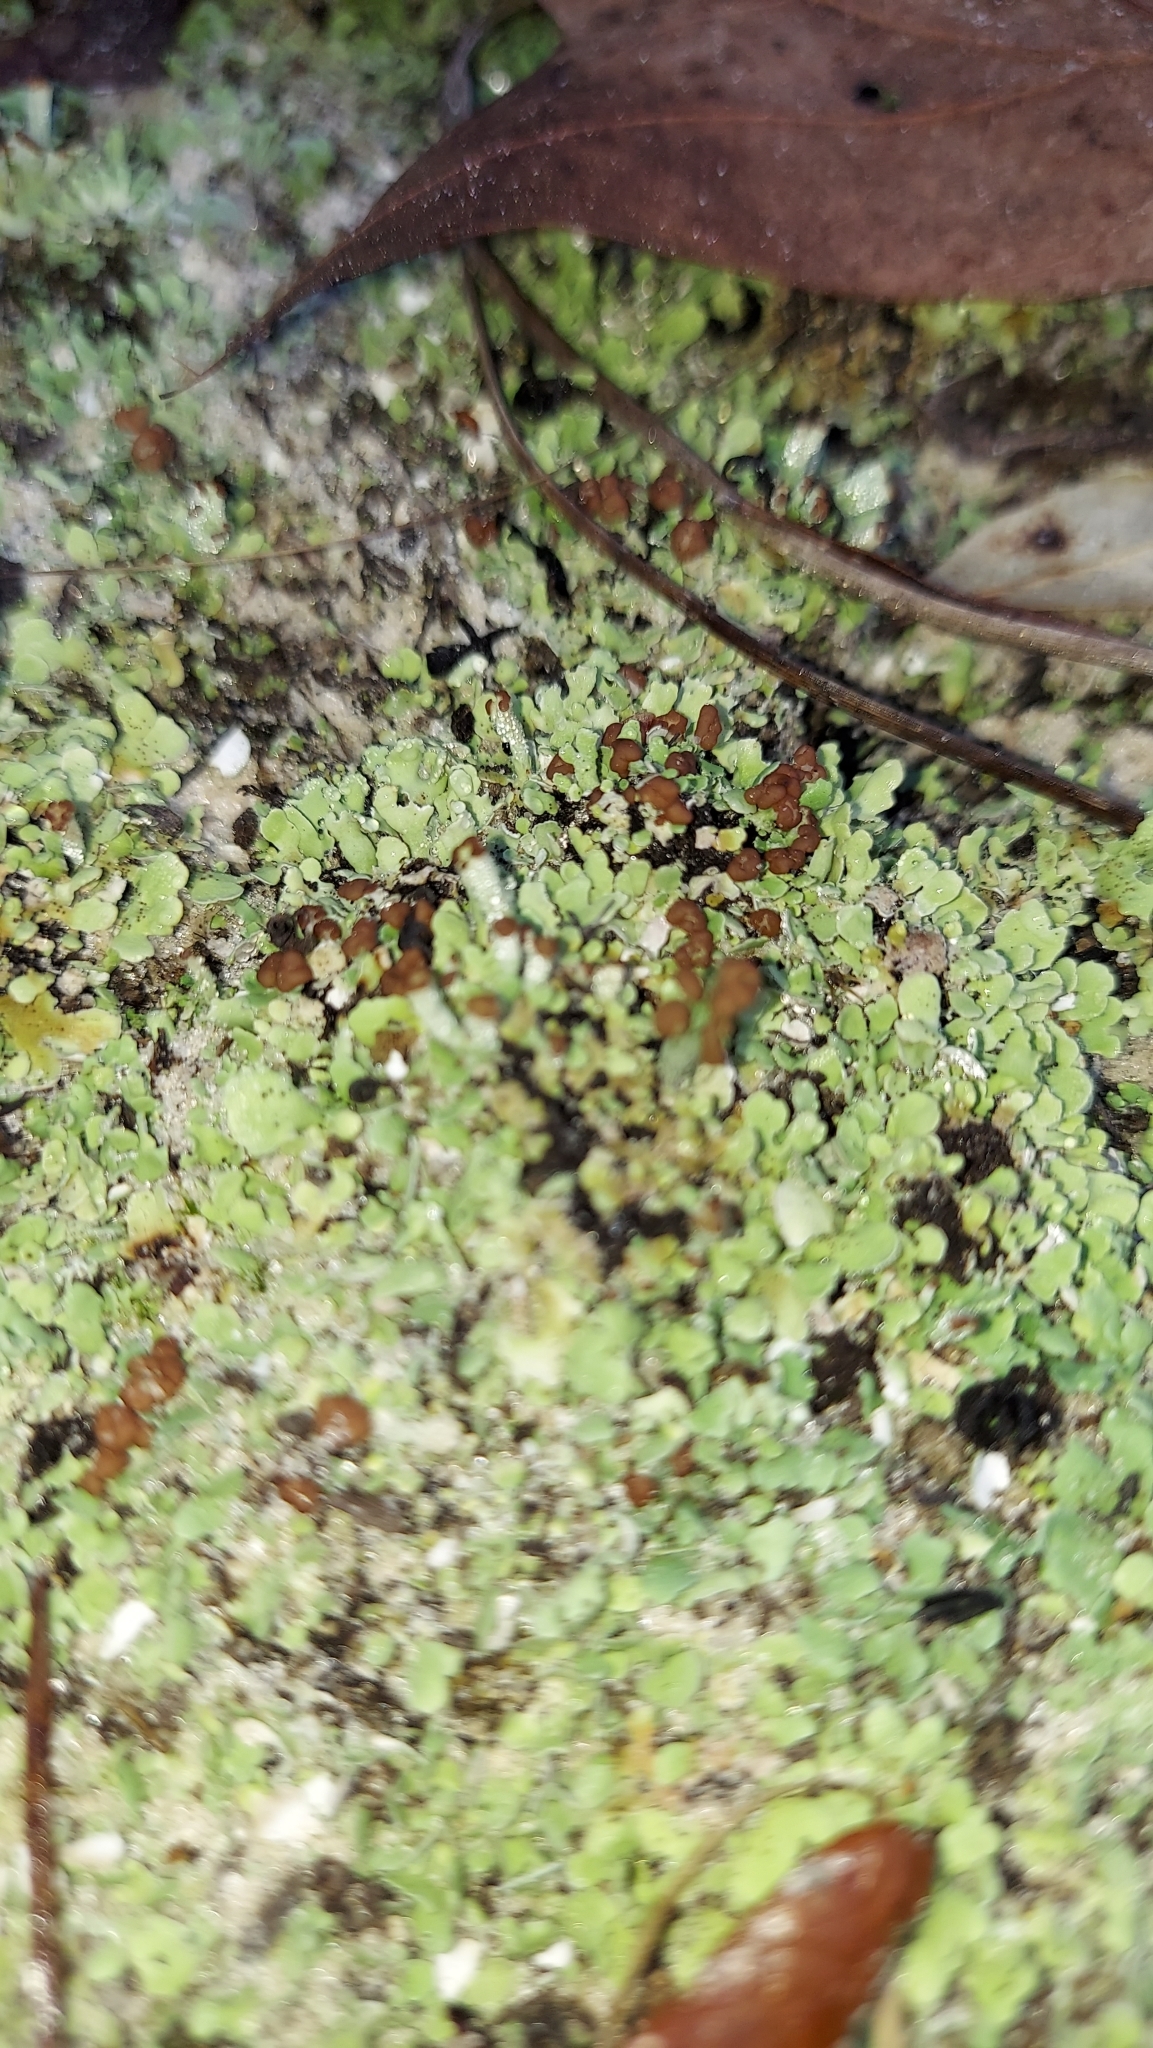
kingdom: Fungi
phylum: Ascomycota
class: Lecanoromycetes
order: Lecanorales
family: Cladoniaceae
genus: Cladonia
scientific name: Cladonia subcariosa
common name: Peg lichen
